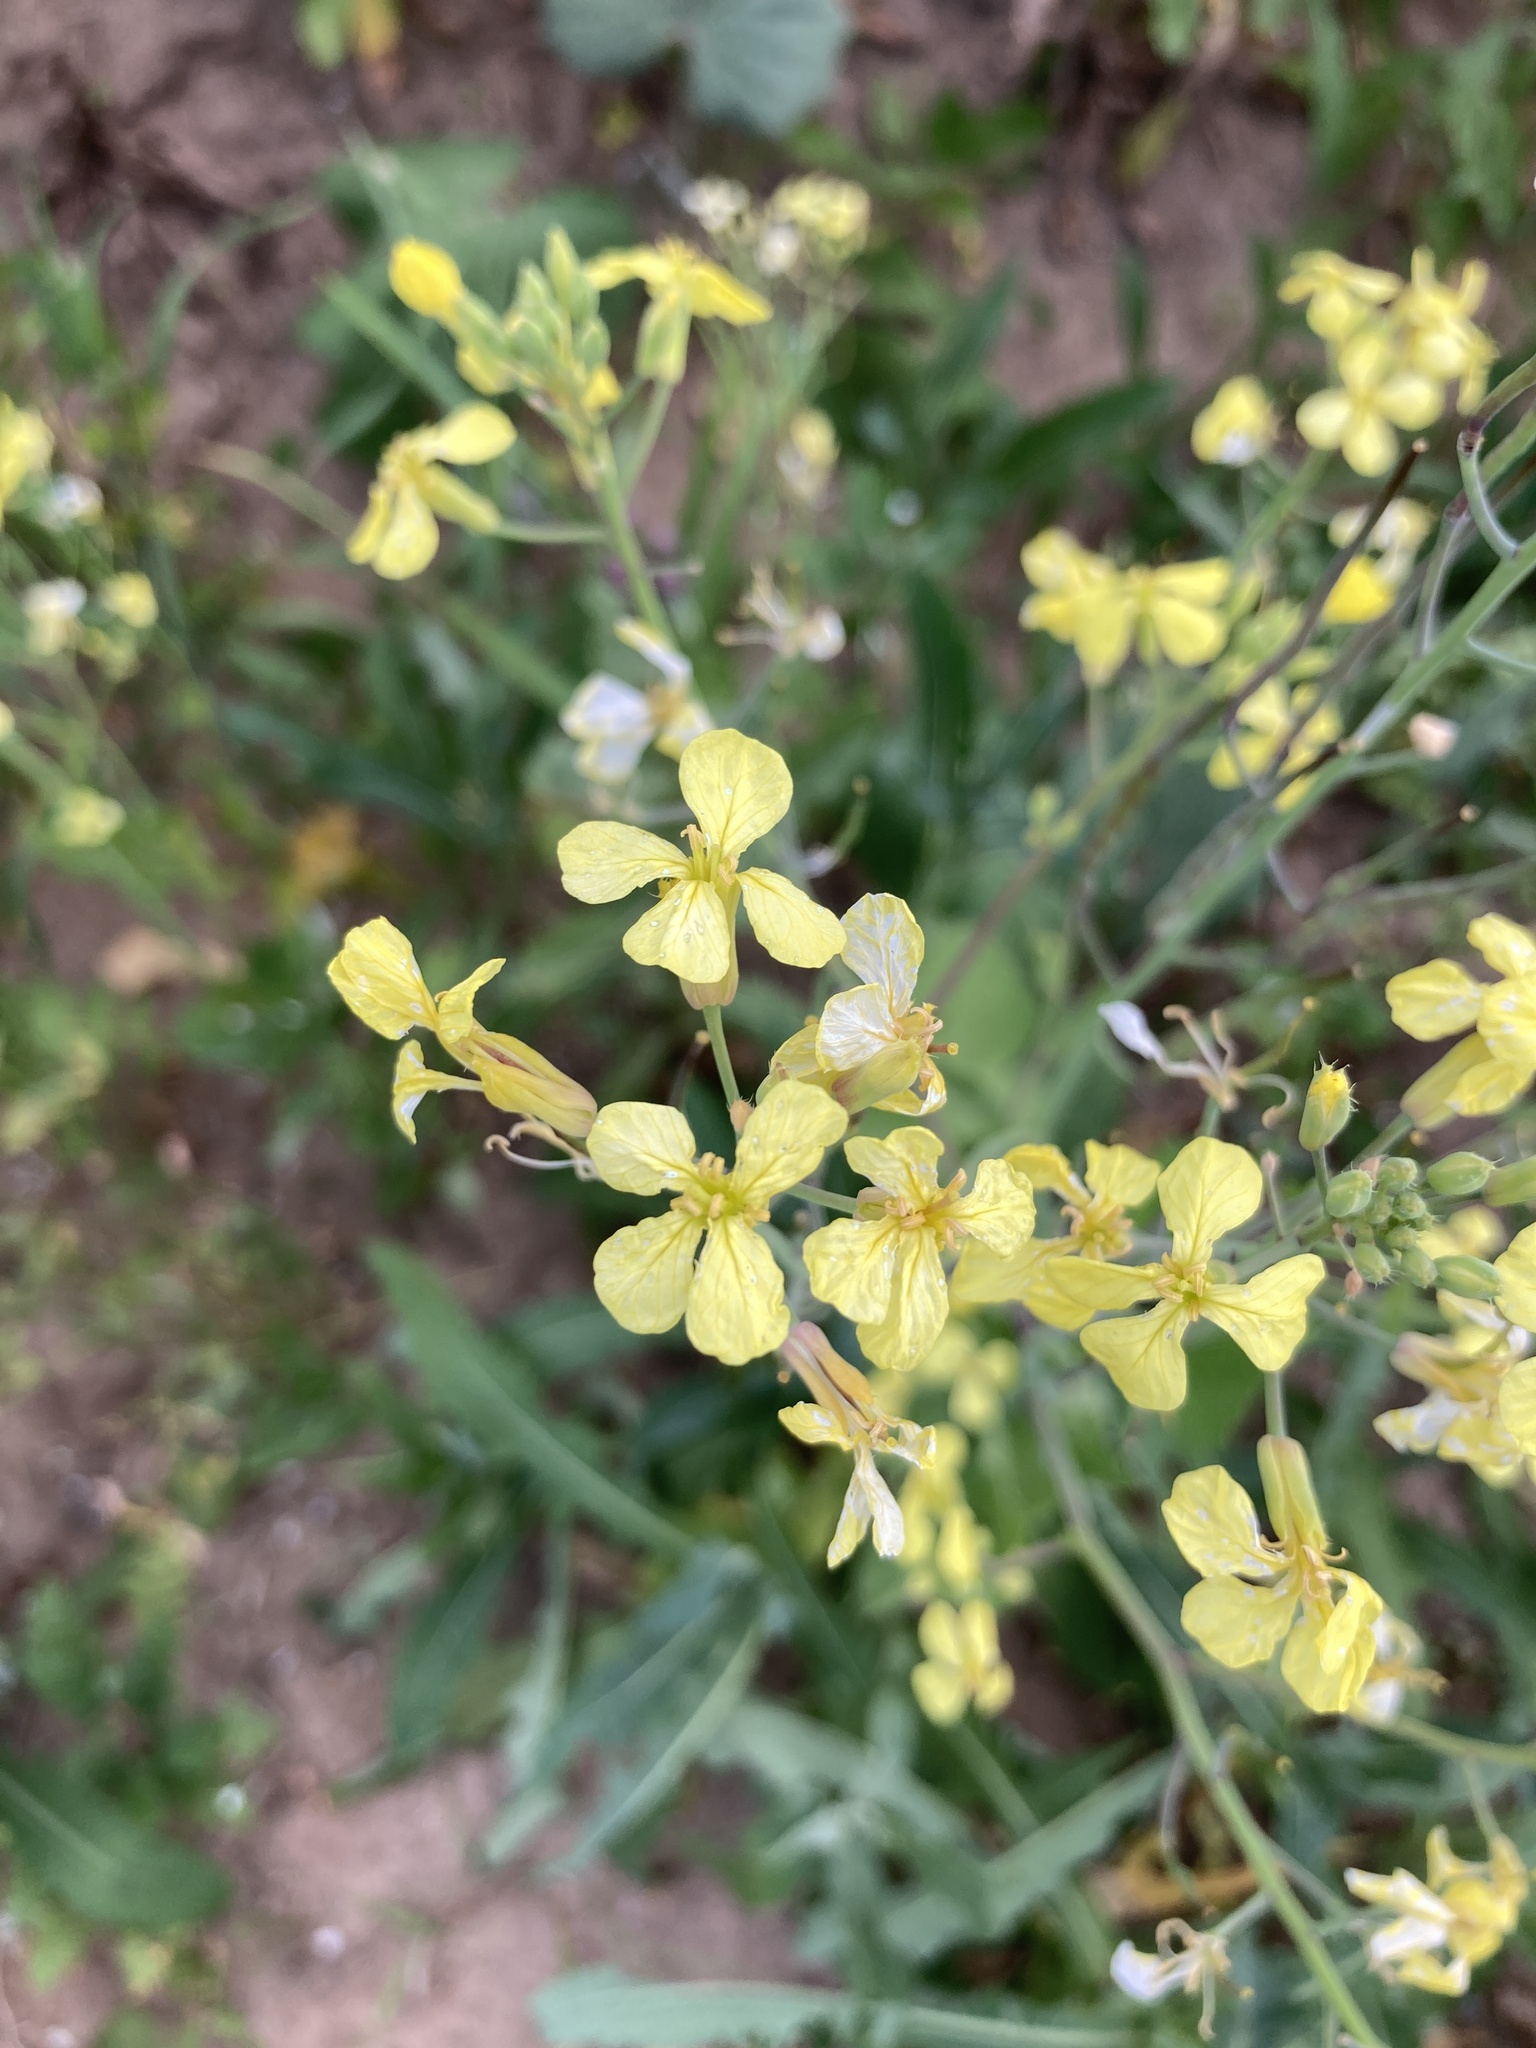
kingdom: Plantae
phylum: Tracheophyta
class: Magnoliopsida
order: Brassicales
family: Brassicaceae
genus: Raphanus
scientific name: Raphanus raphanistrum
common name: Wild radish
